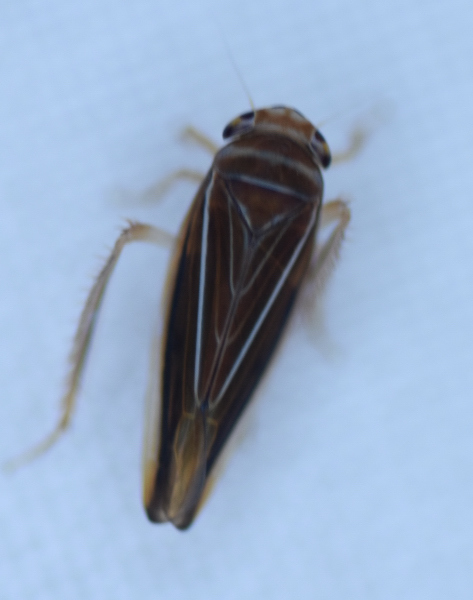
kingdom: Animalia
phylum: Arthropoda
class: Insecta
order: Hemiptera
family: Cicadellidae
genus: Idiodonus
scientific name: Idiodonus kennicotti
